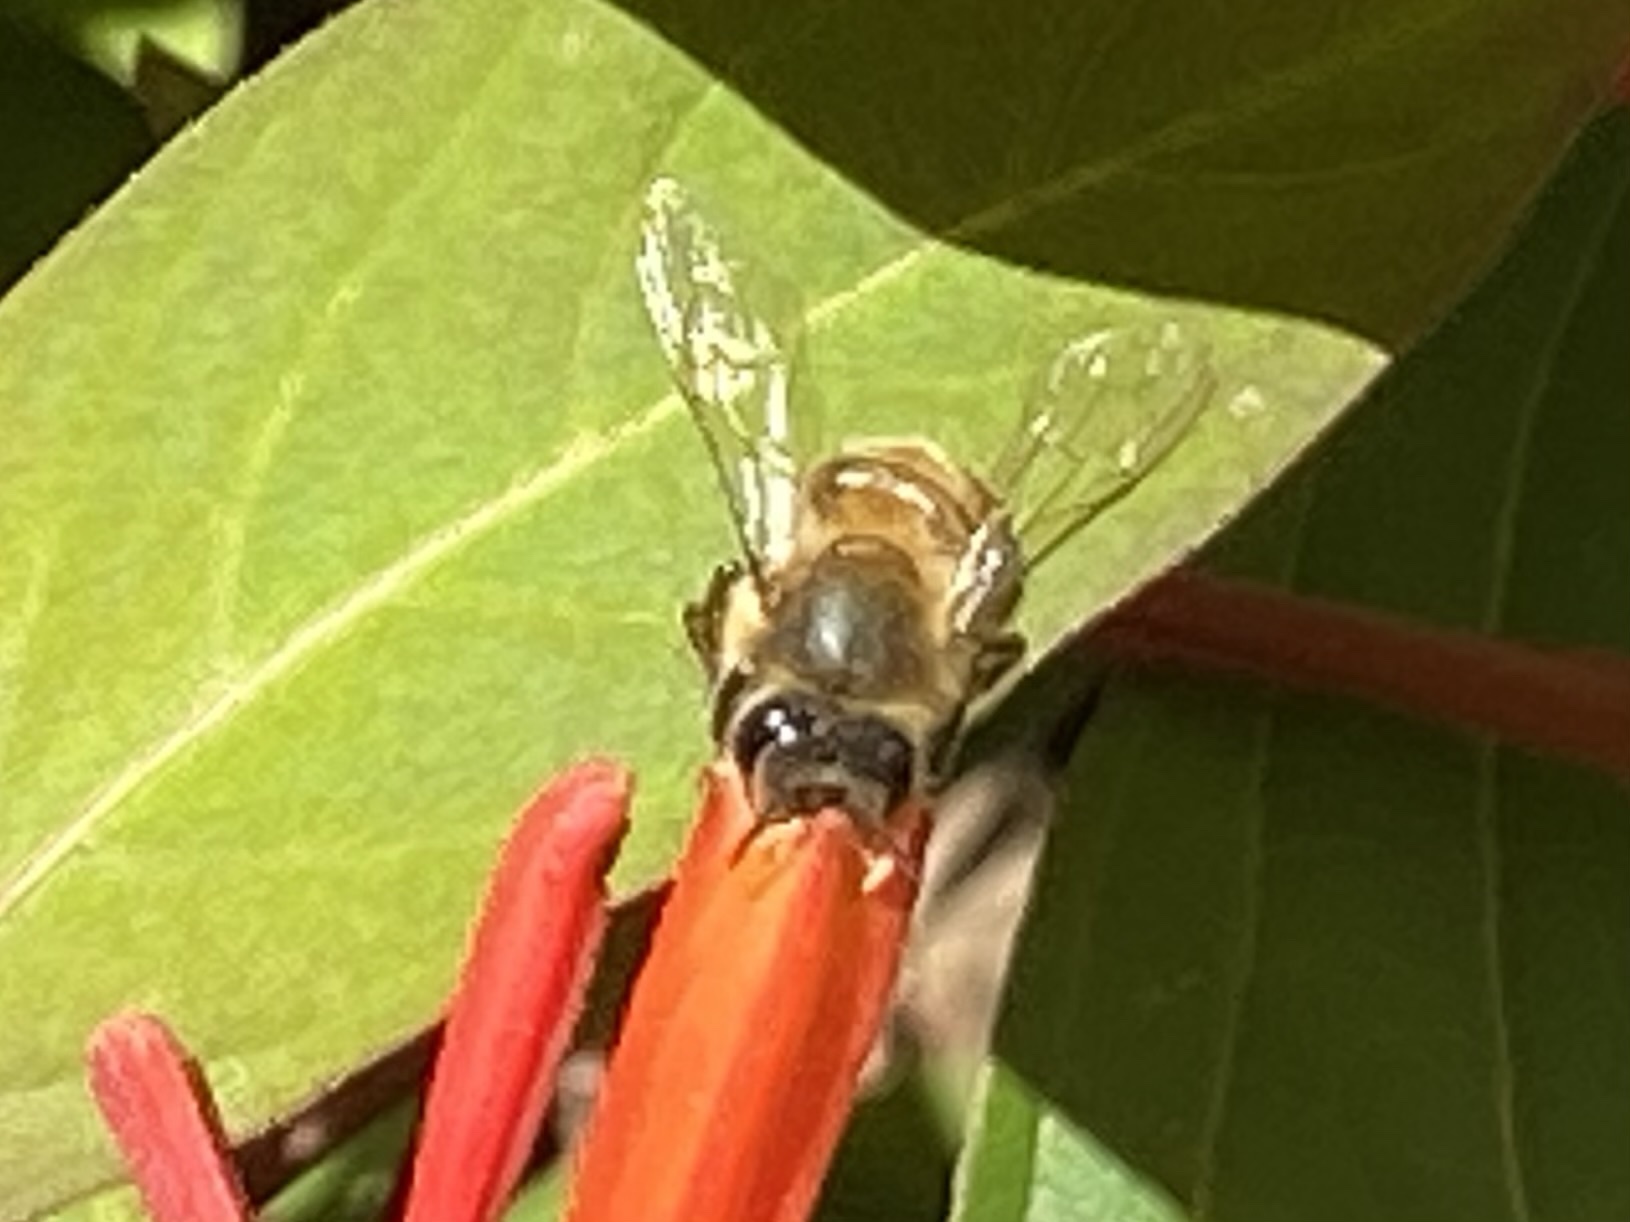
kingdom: Animalia
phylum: Arthropoda
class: Insecta
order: Hymenoptera
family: Apidae
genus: Apis
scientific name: Apis mellifera
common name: Honey bee
